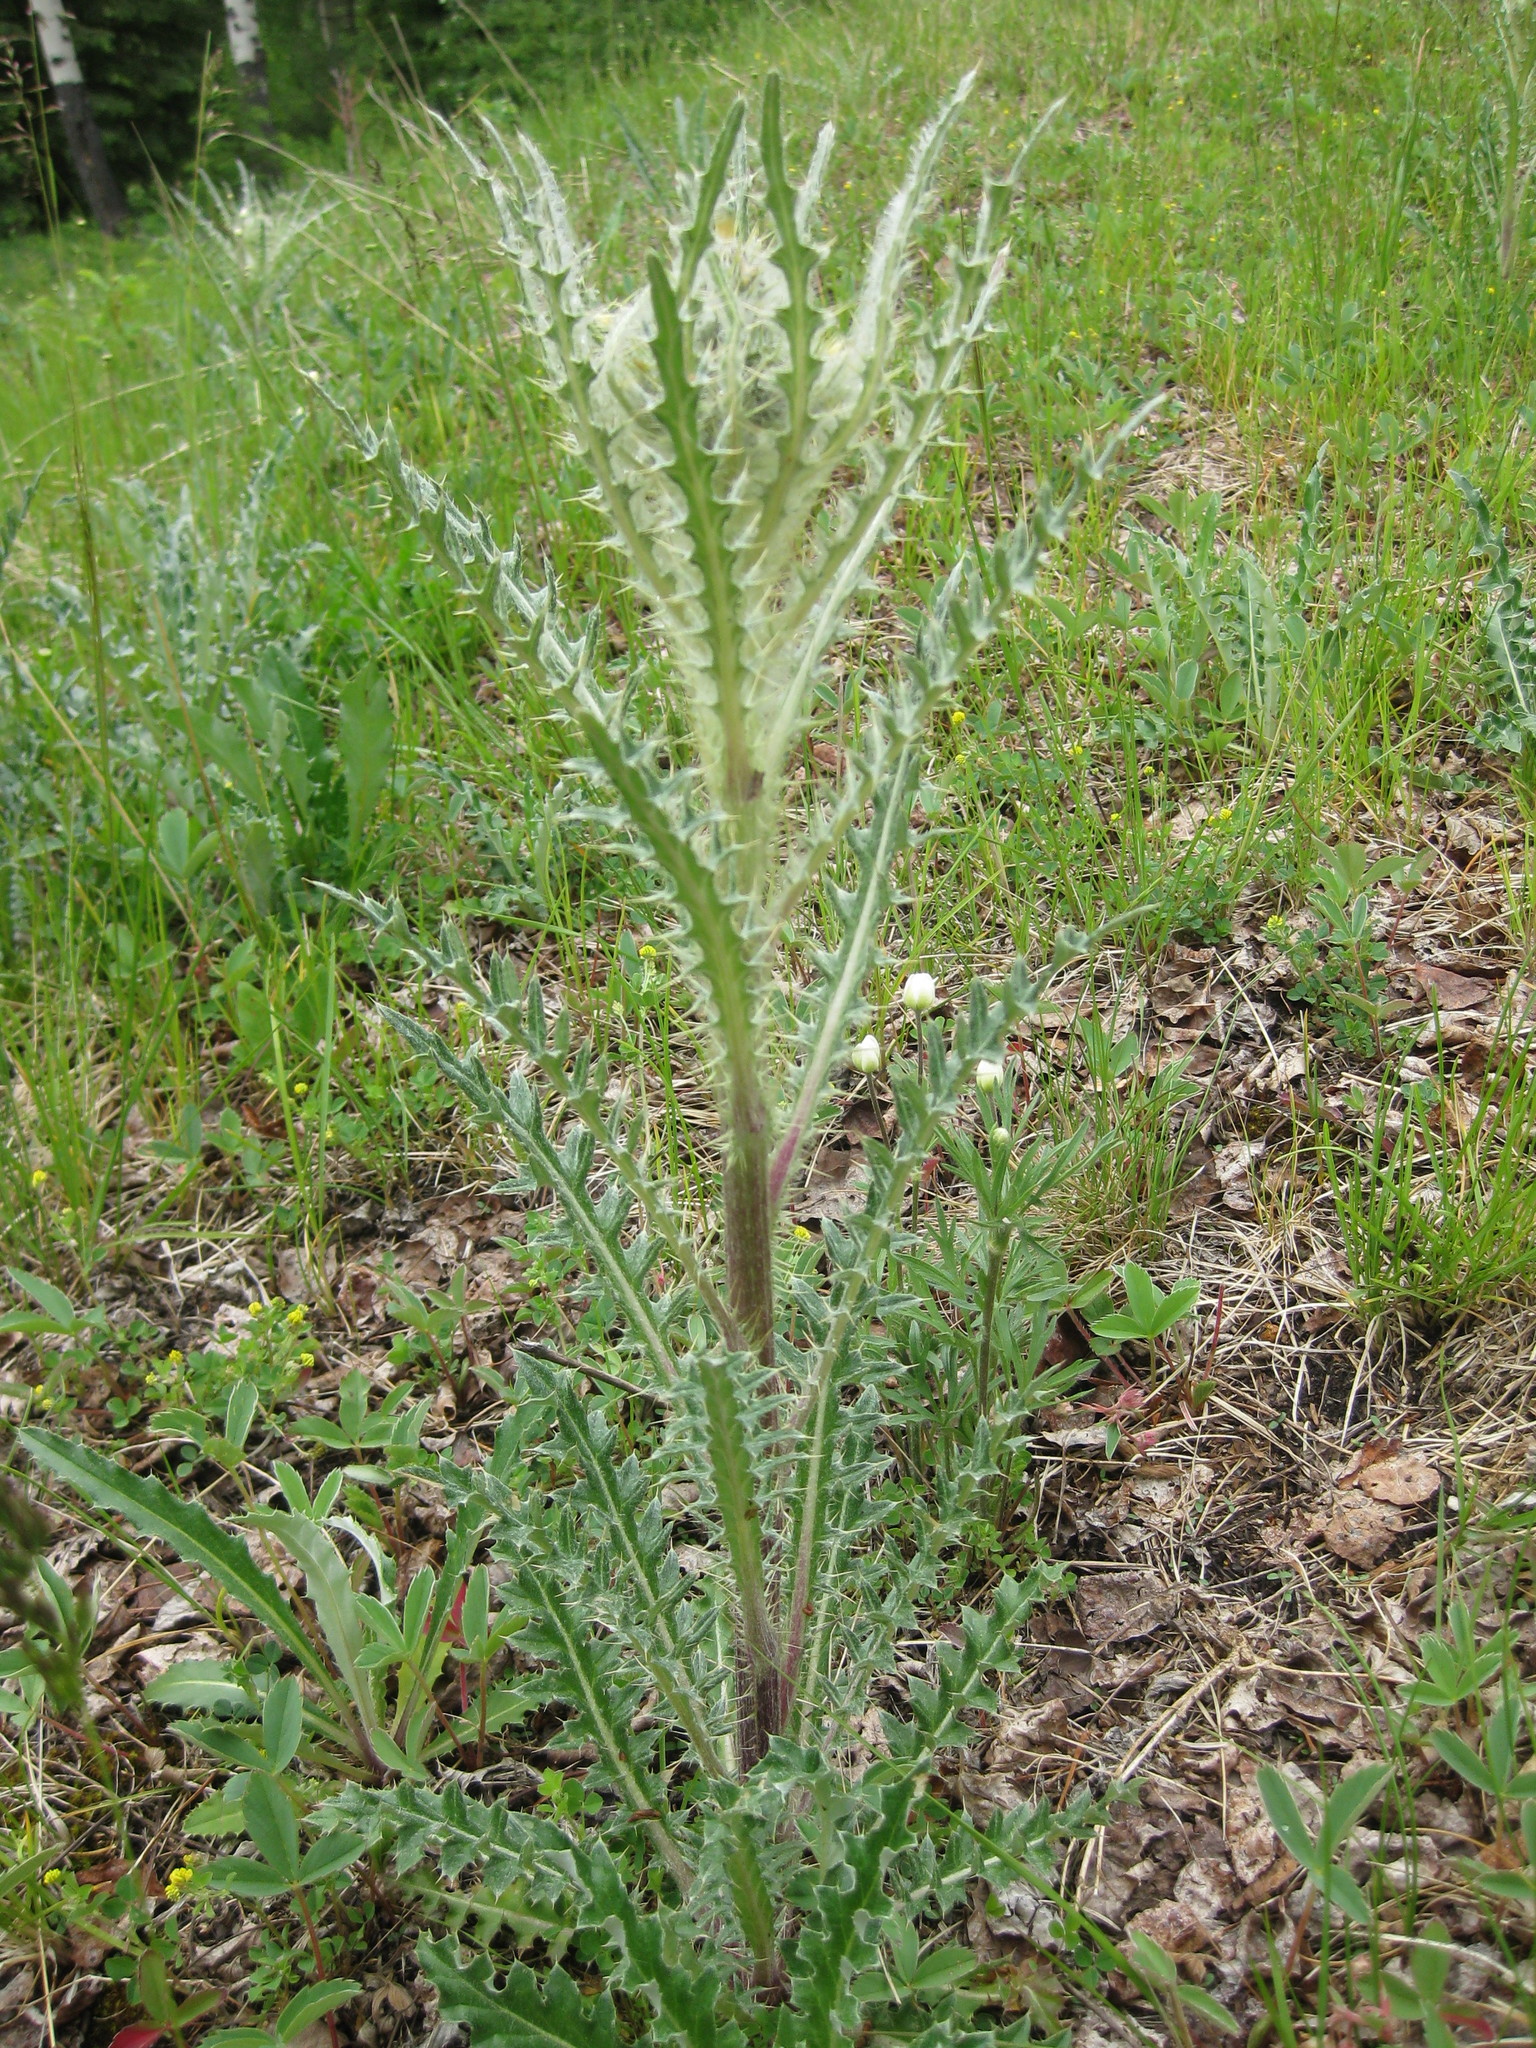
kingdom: Plantae
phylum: Tracheophyta
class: Magnoliopsida
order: Asterales
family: Asteraceae
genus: Cirsium
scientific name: Cirsium hookerianum
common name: Hooker's thistle
